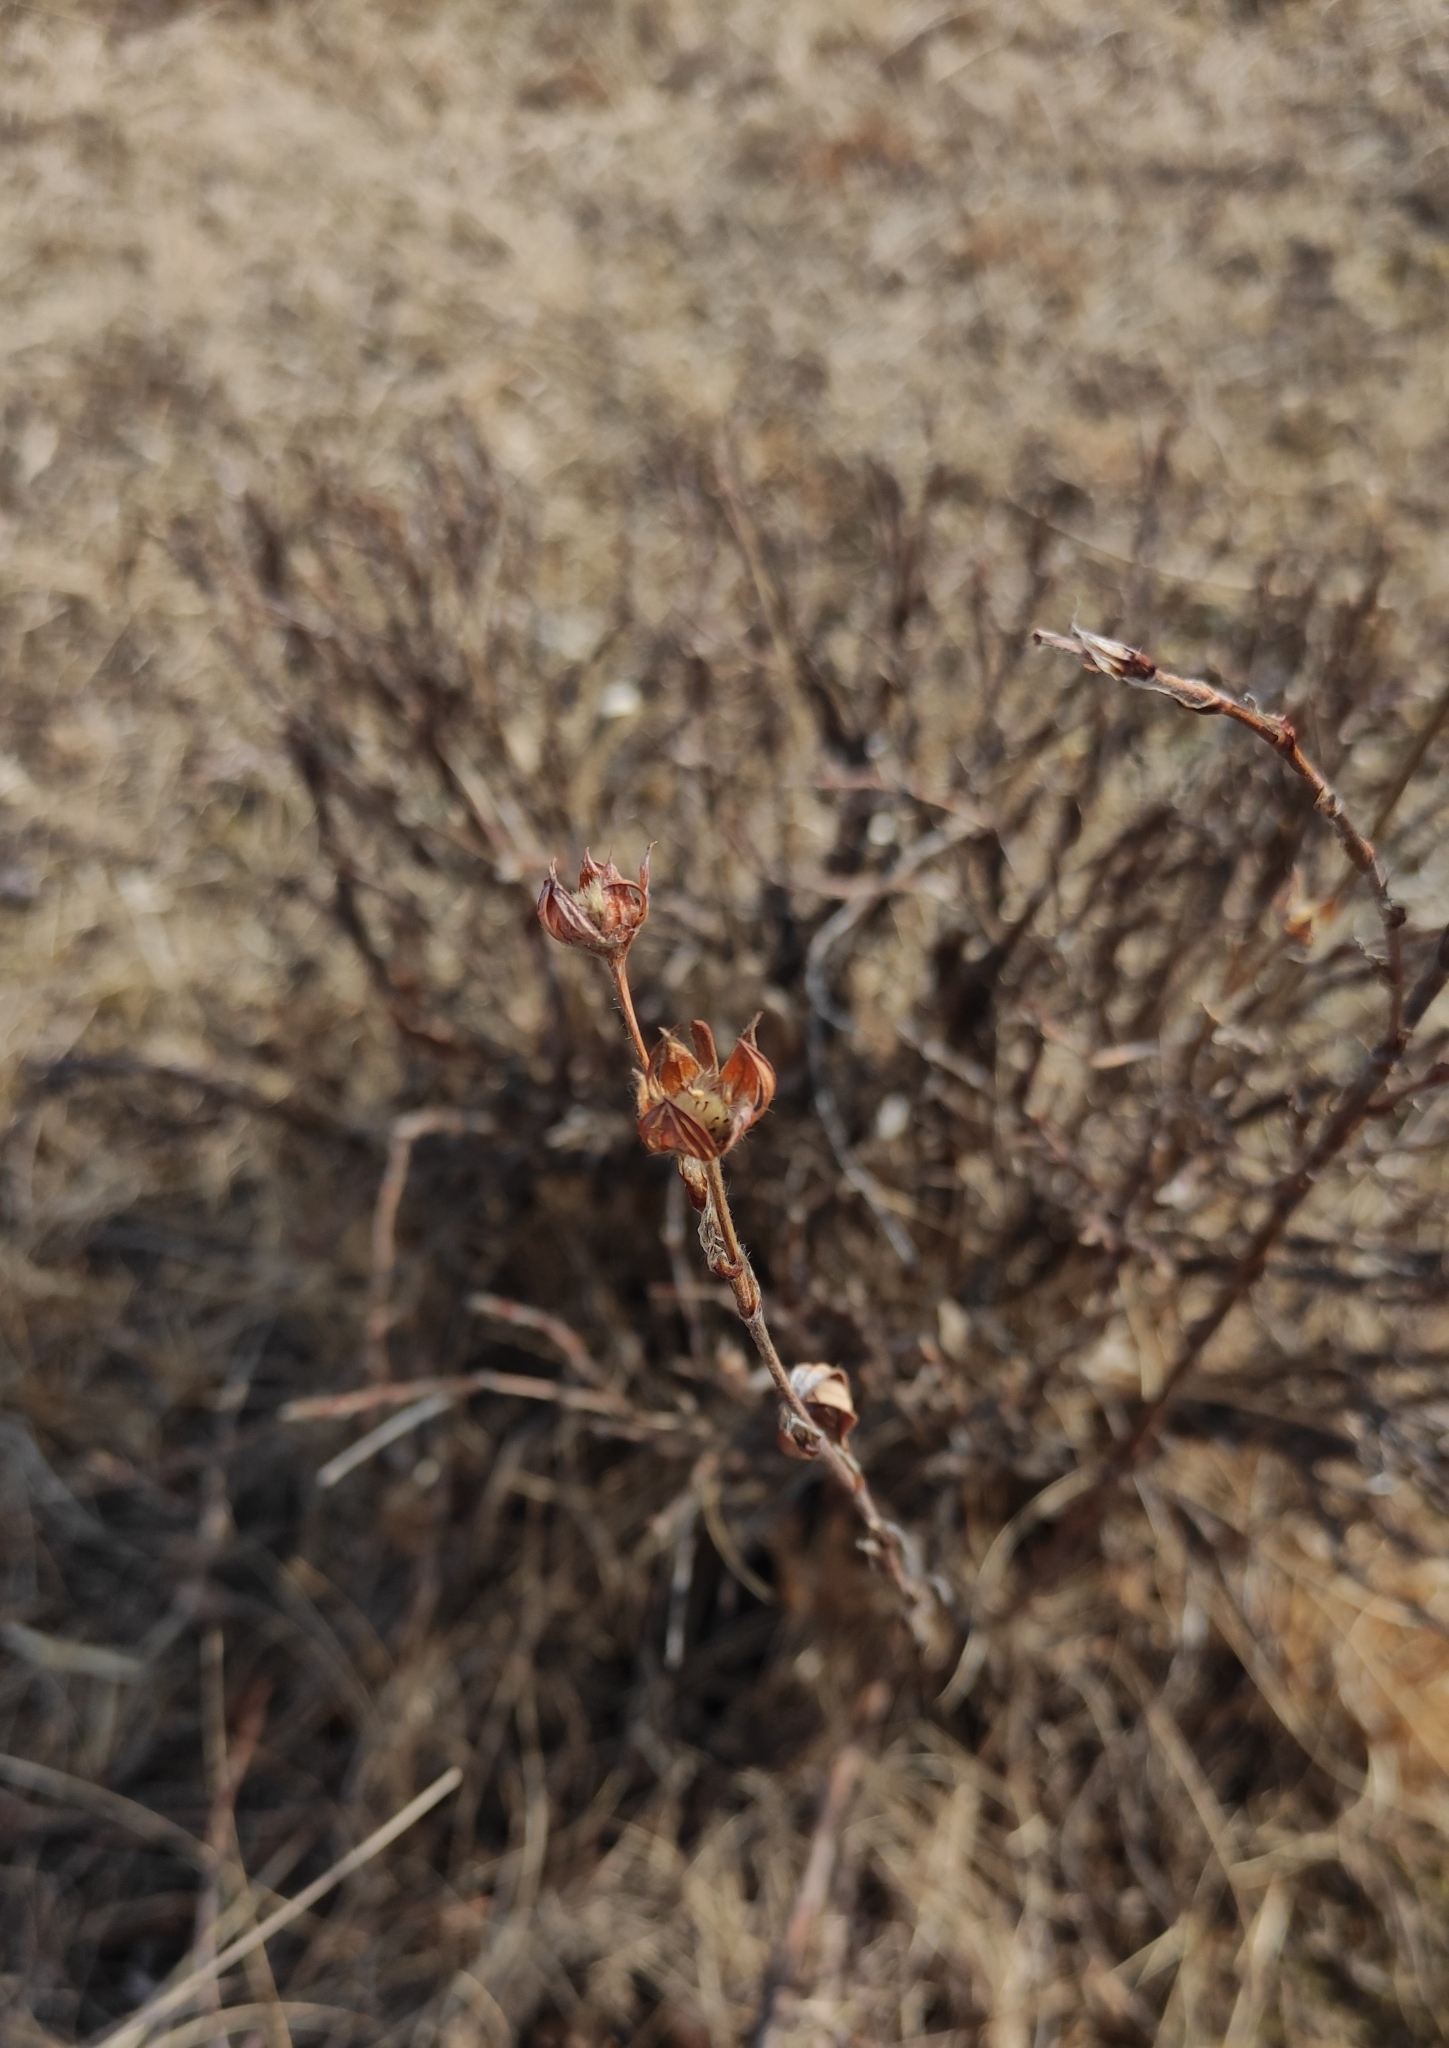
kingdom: Plantae
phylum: Tracheophyta
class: Magnoliopsida
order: Rosales
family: Rosaceae
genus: Dasiphora
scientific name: Dasiphora fruticosa
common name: Shrubby cinquefoil
